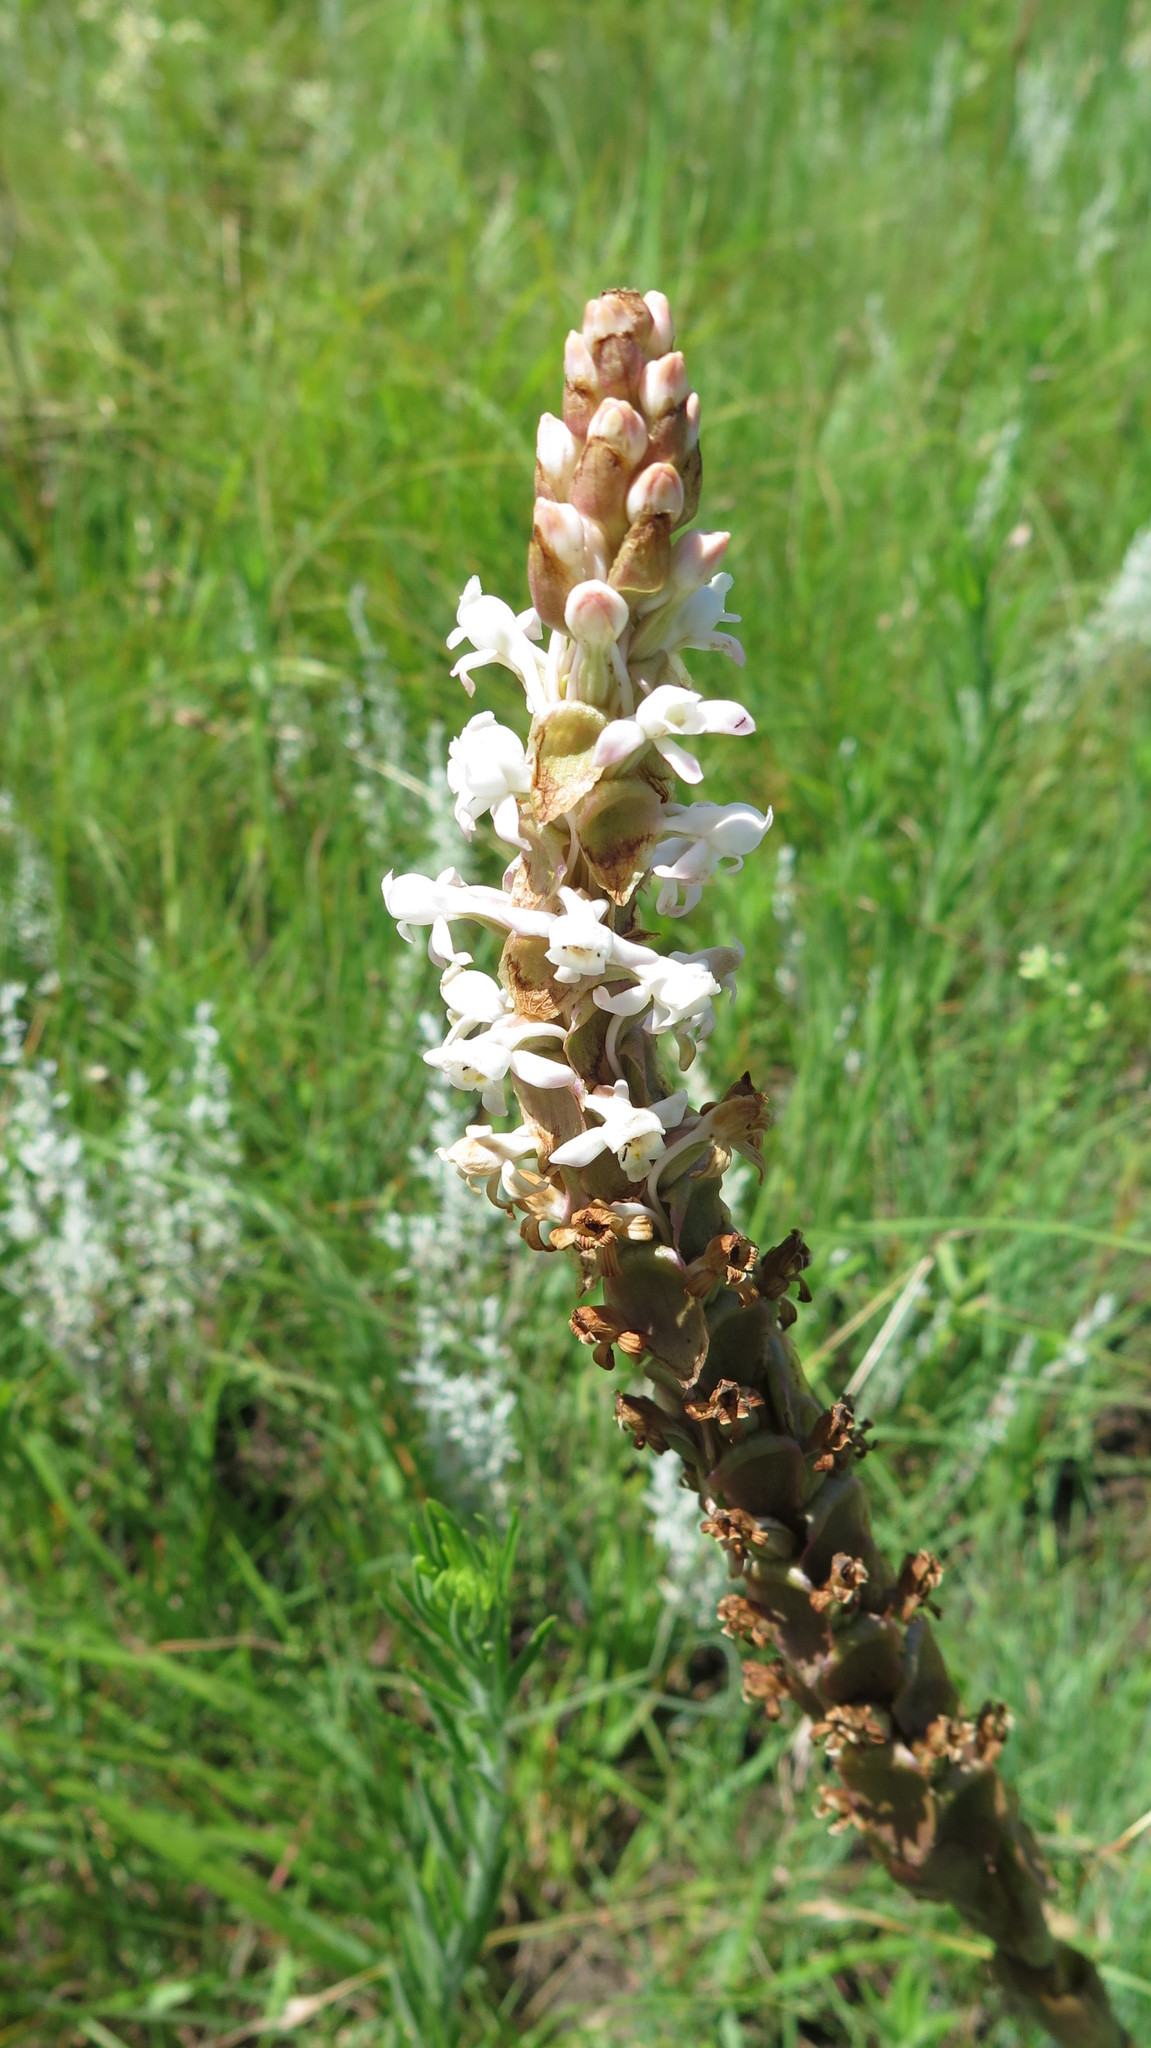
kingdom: Plantae
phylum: Tracheophyta
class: Liliopsida
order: Asparagales
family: Orchidaceae
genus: Satyrium
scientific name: Satyrium longicauda
